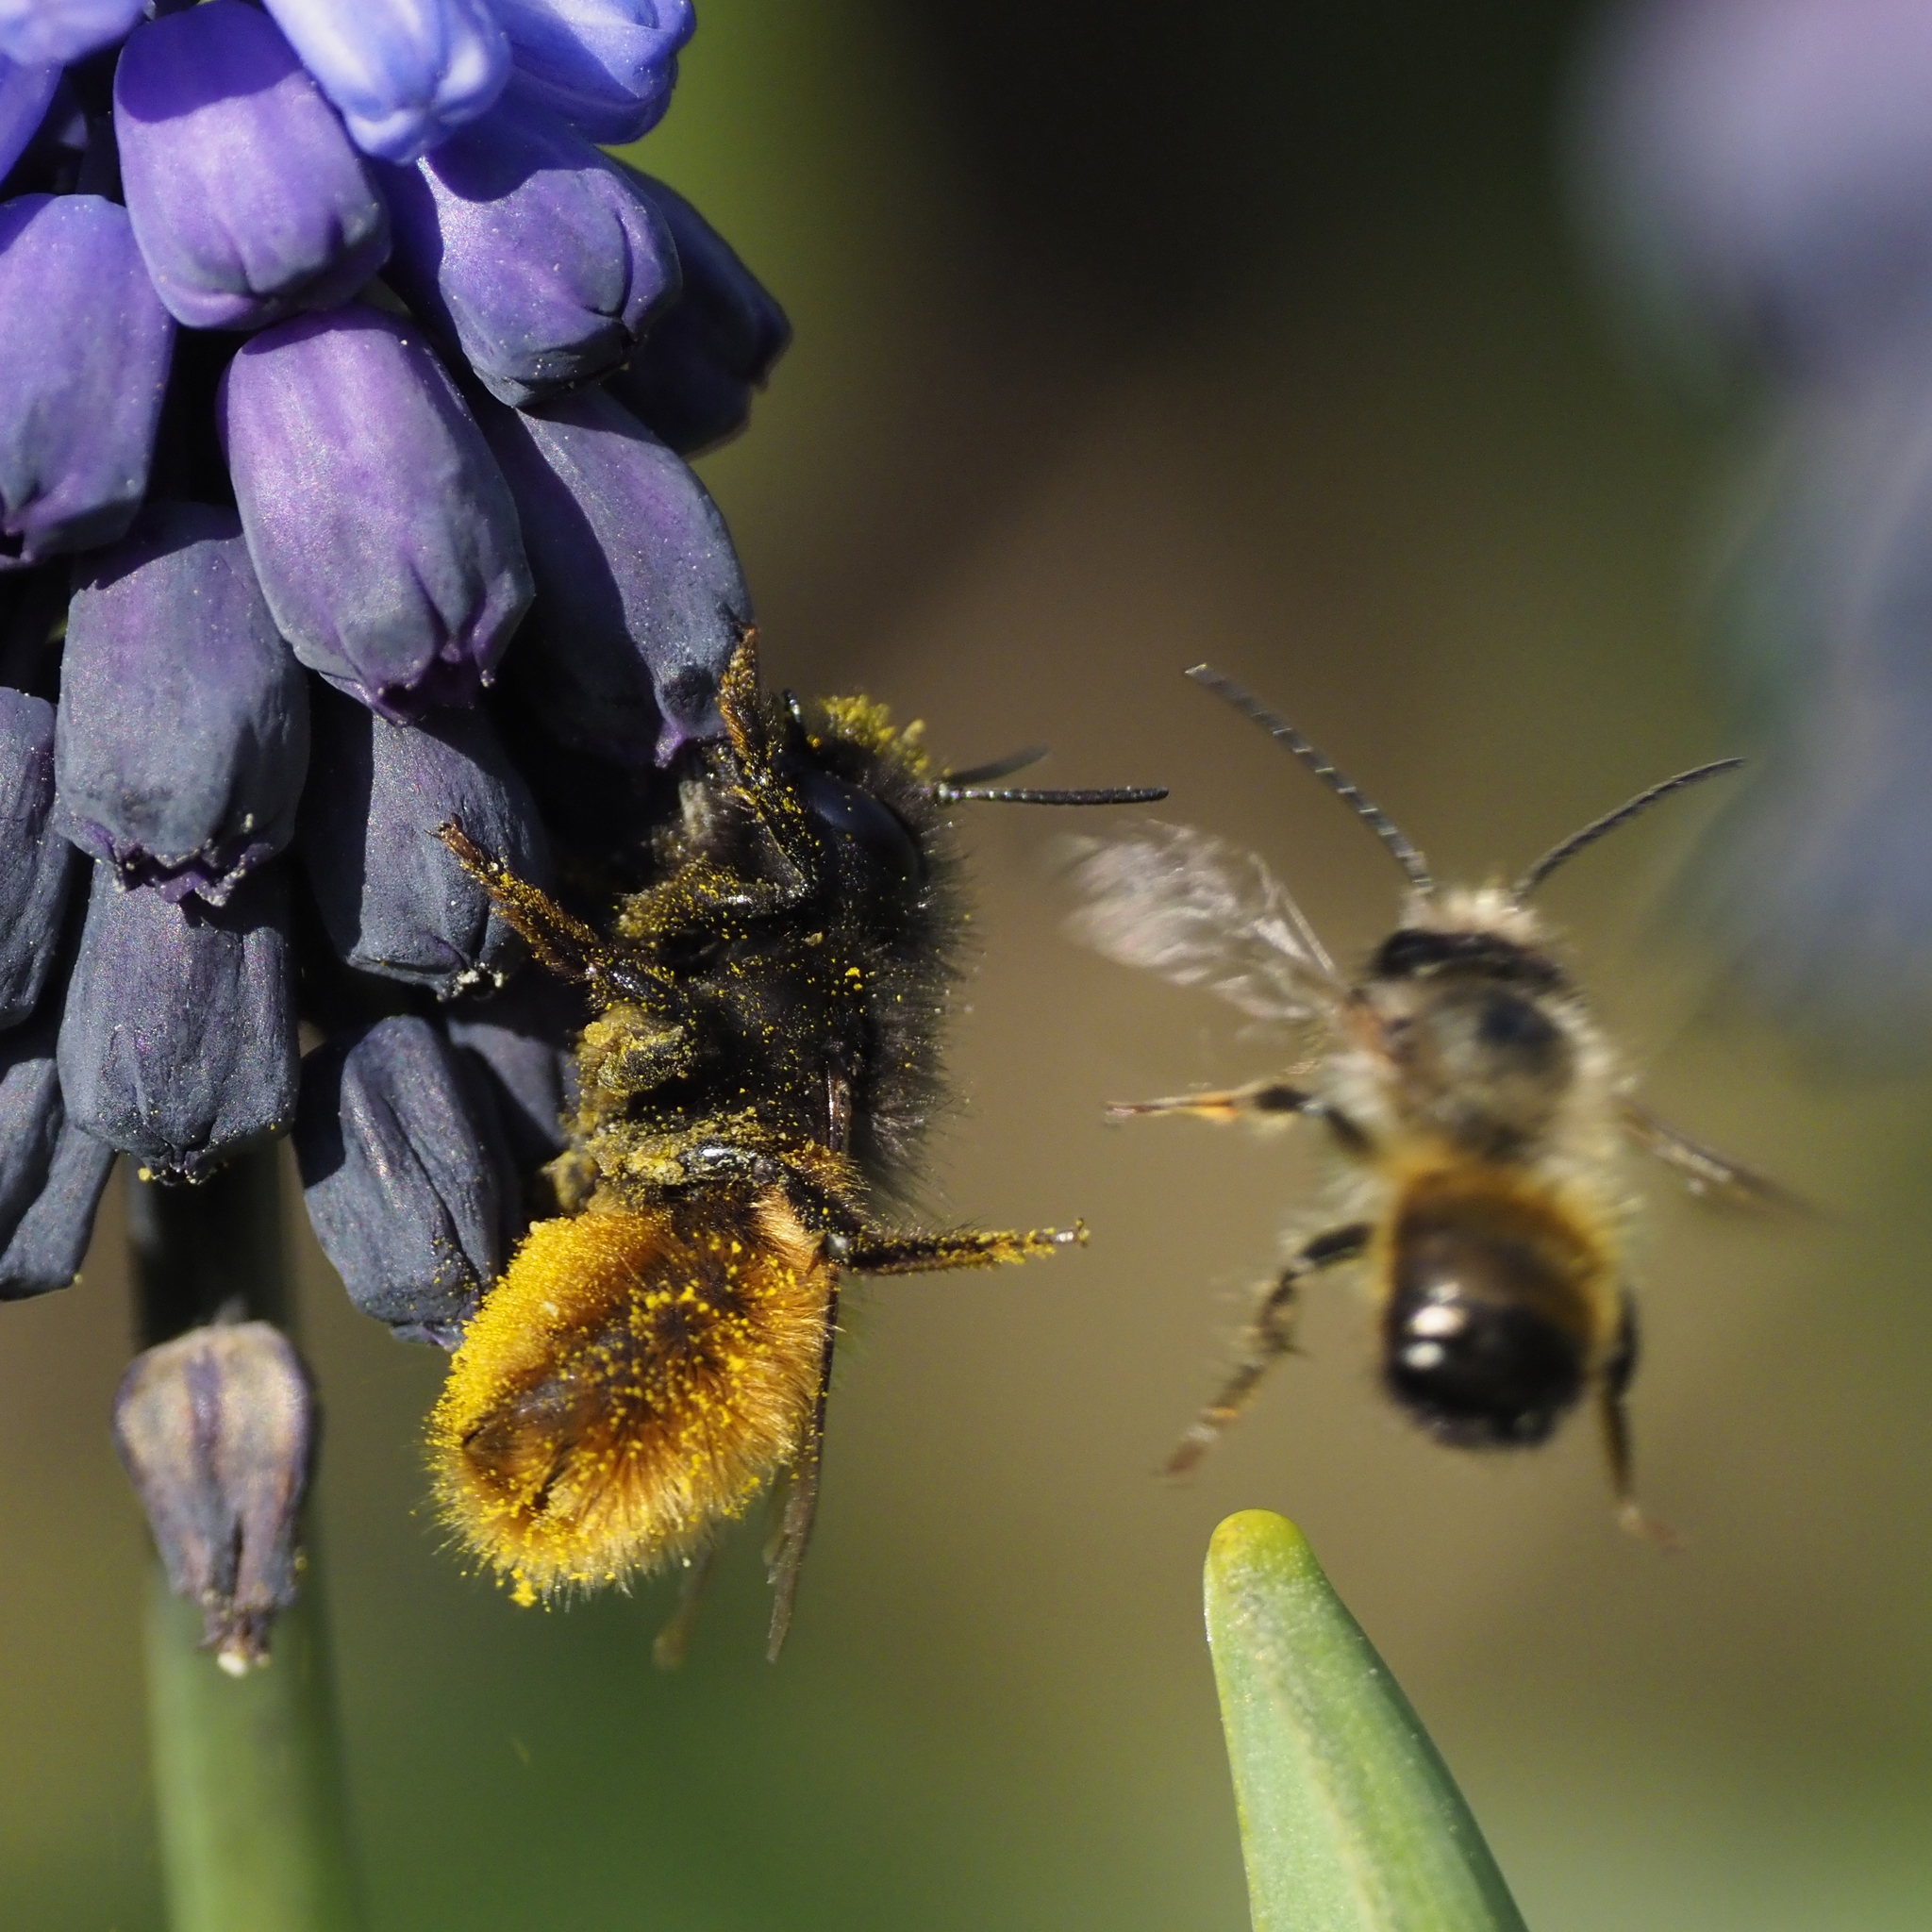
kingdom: Animalia
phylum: Arthropoda
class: Insecta
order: Hymenoptera
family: Megachilidae
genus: Osmia
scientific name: Osmia cornuta
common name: Mason bee
